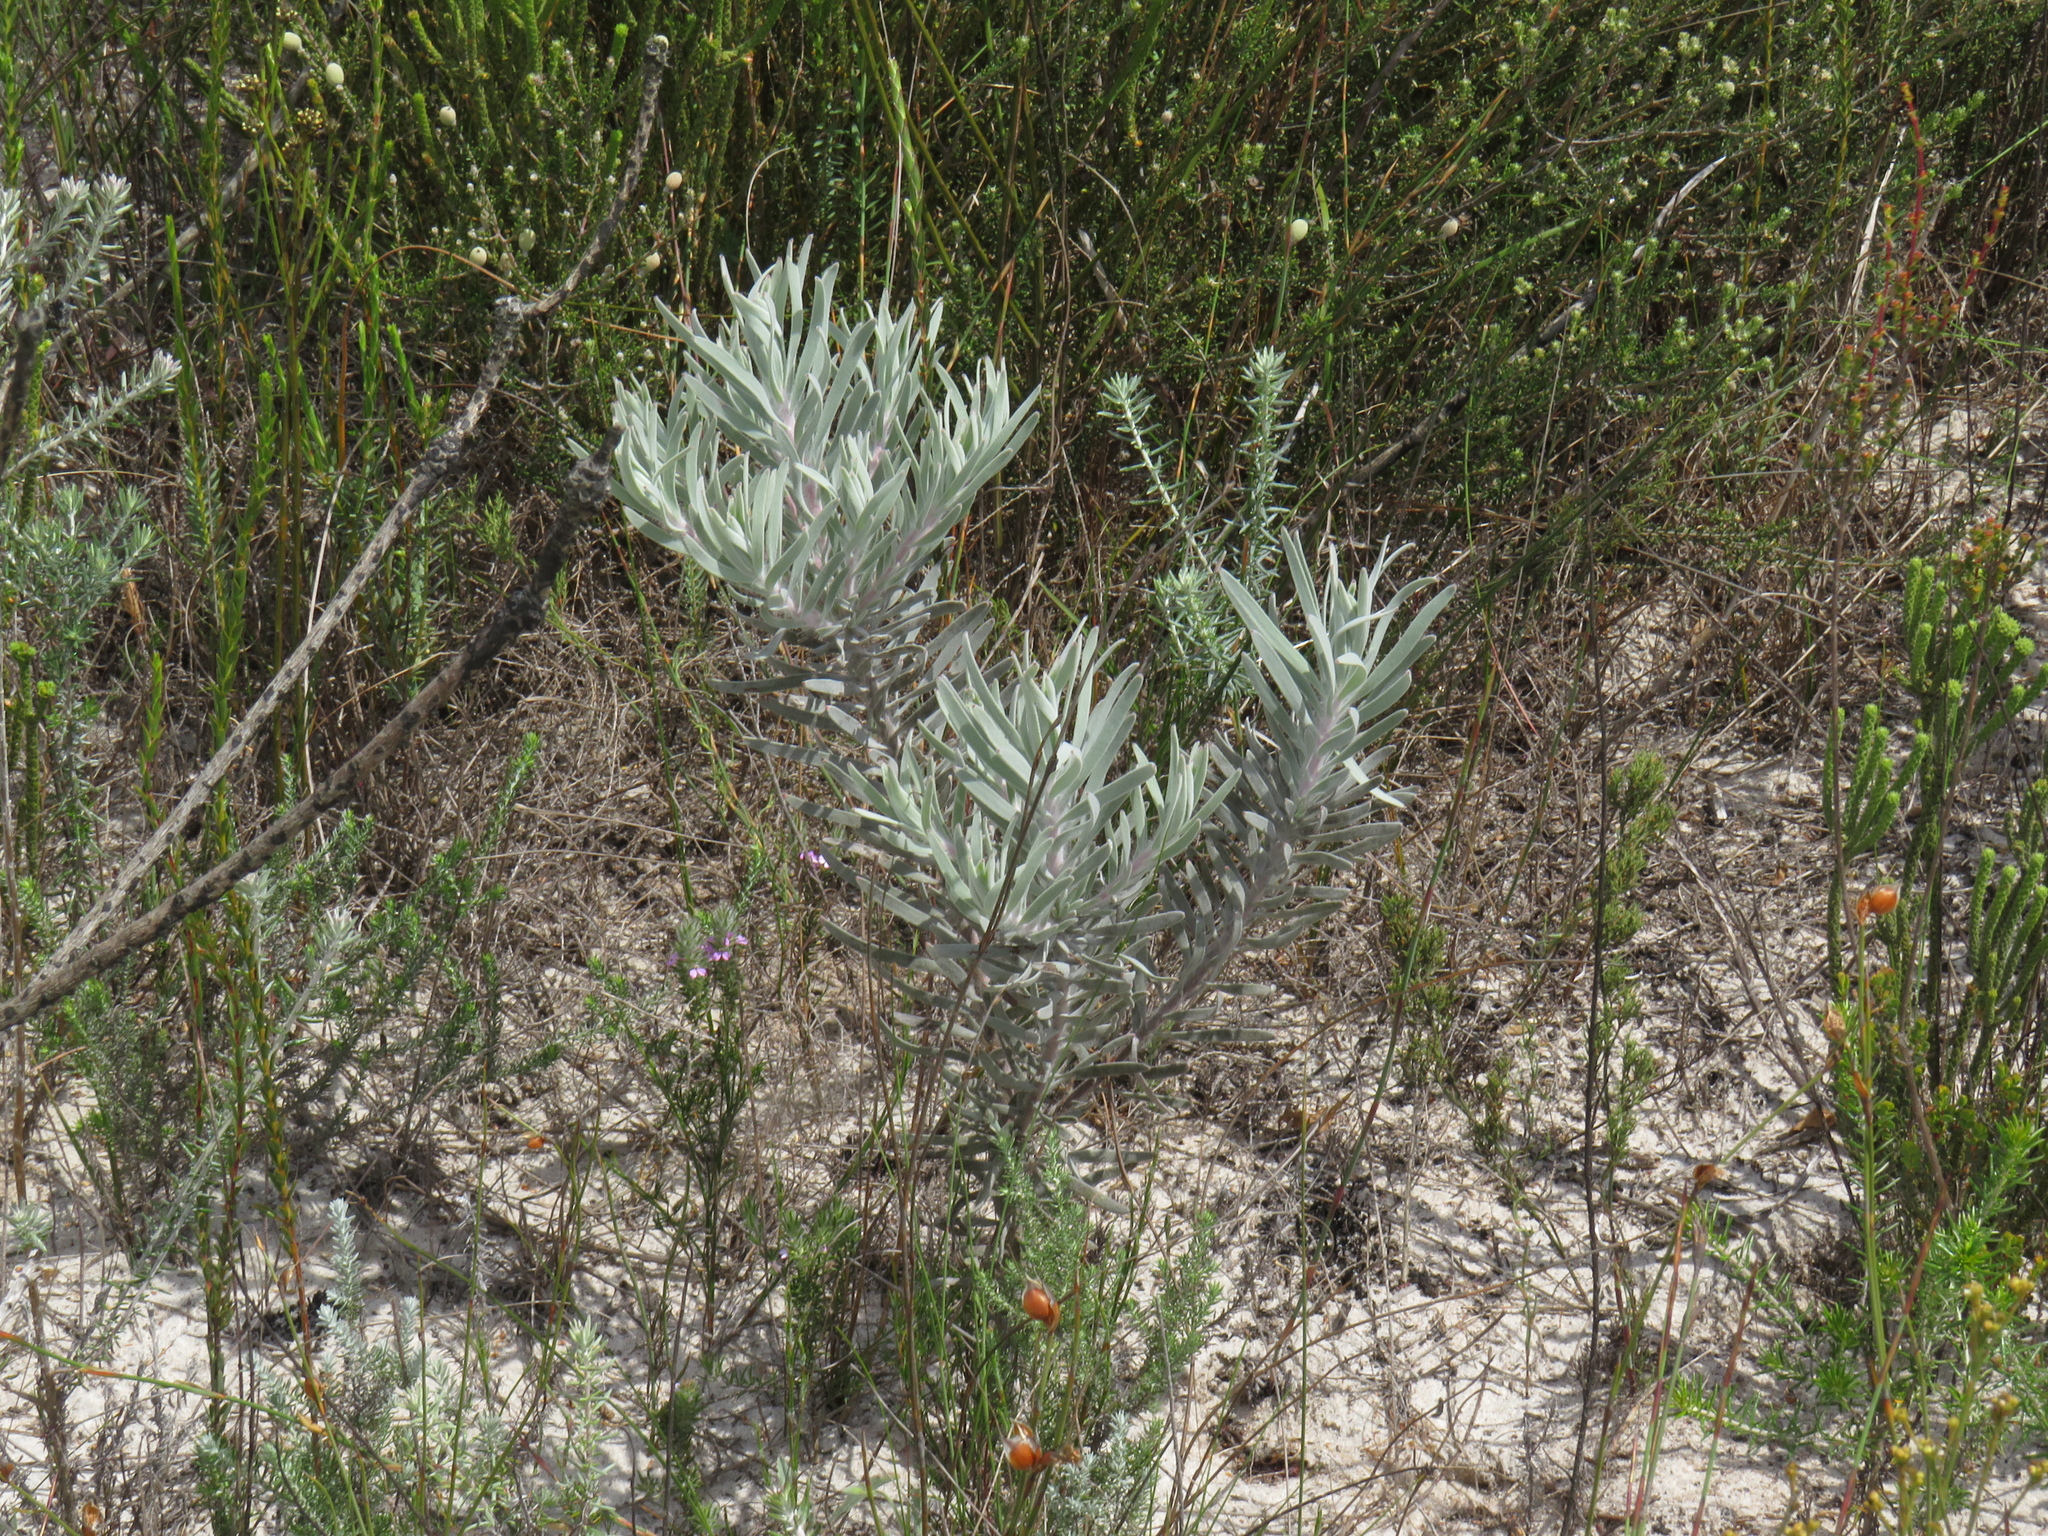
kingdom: Plantae
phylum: Tracheophyta
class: Magnoliopsida
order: Proteales
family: Proteaceae
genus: Leucospermum
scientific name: Leucospermum parile
